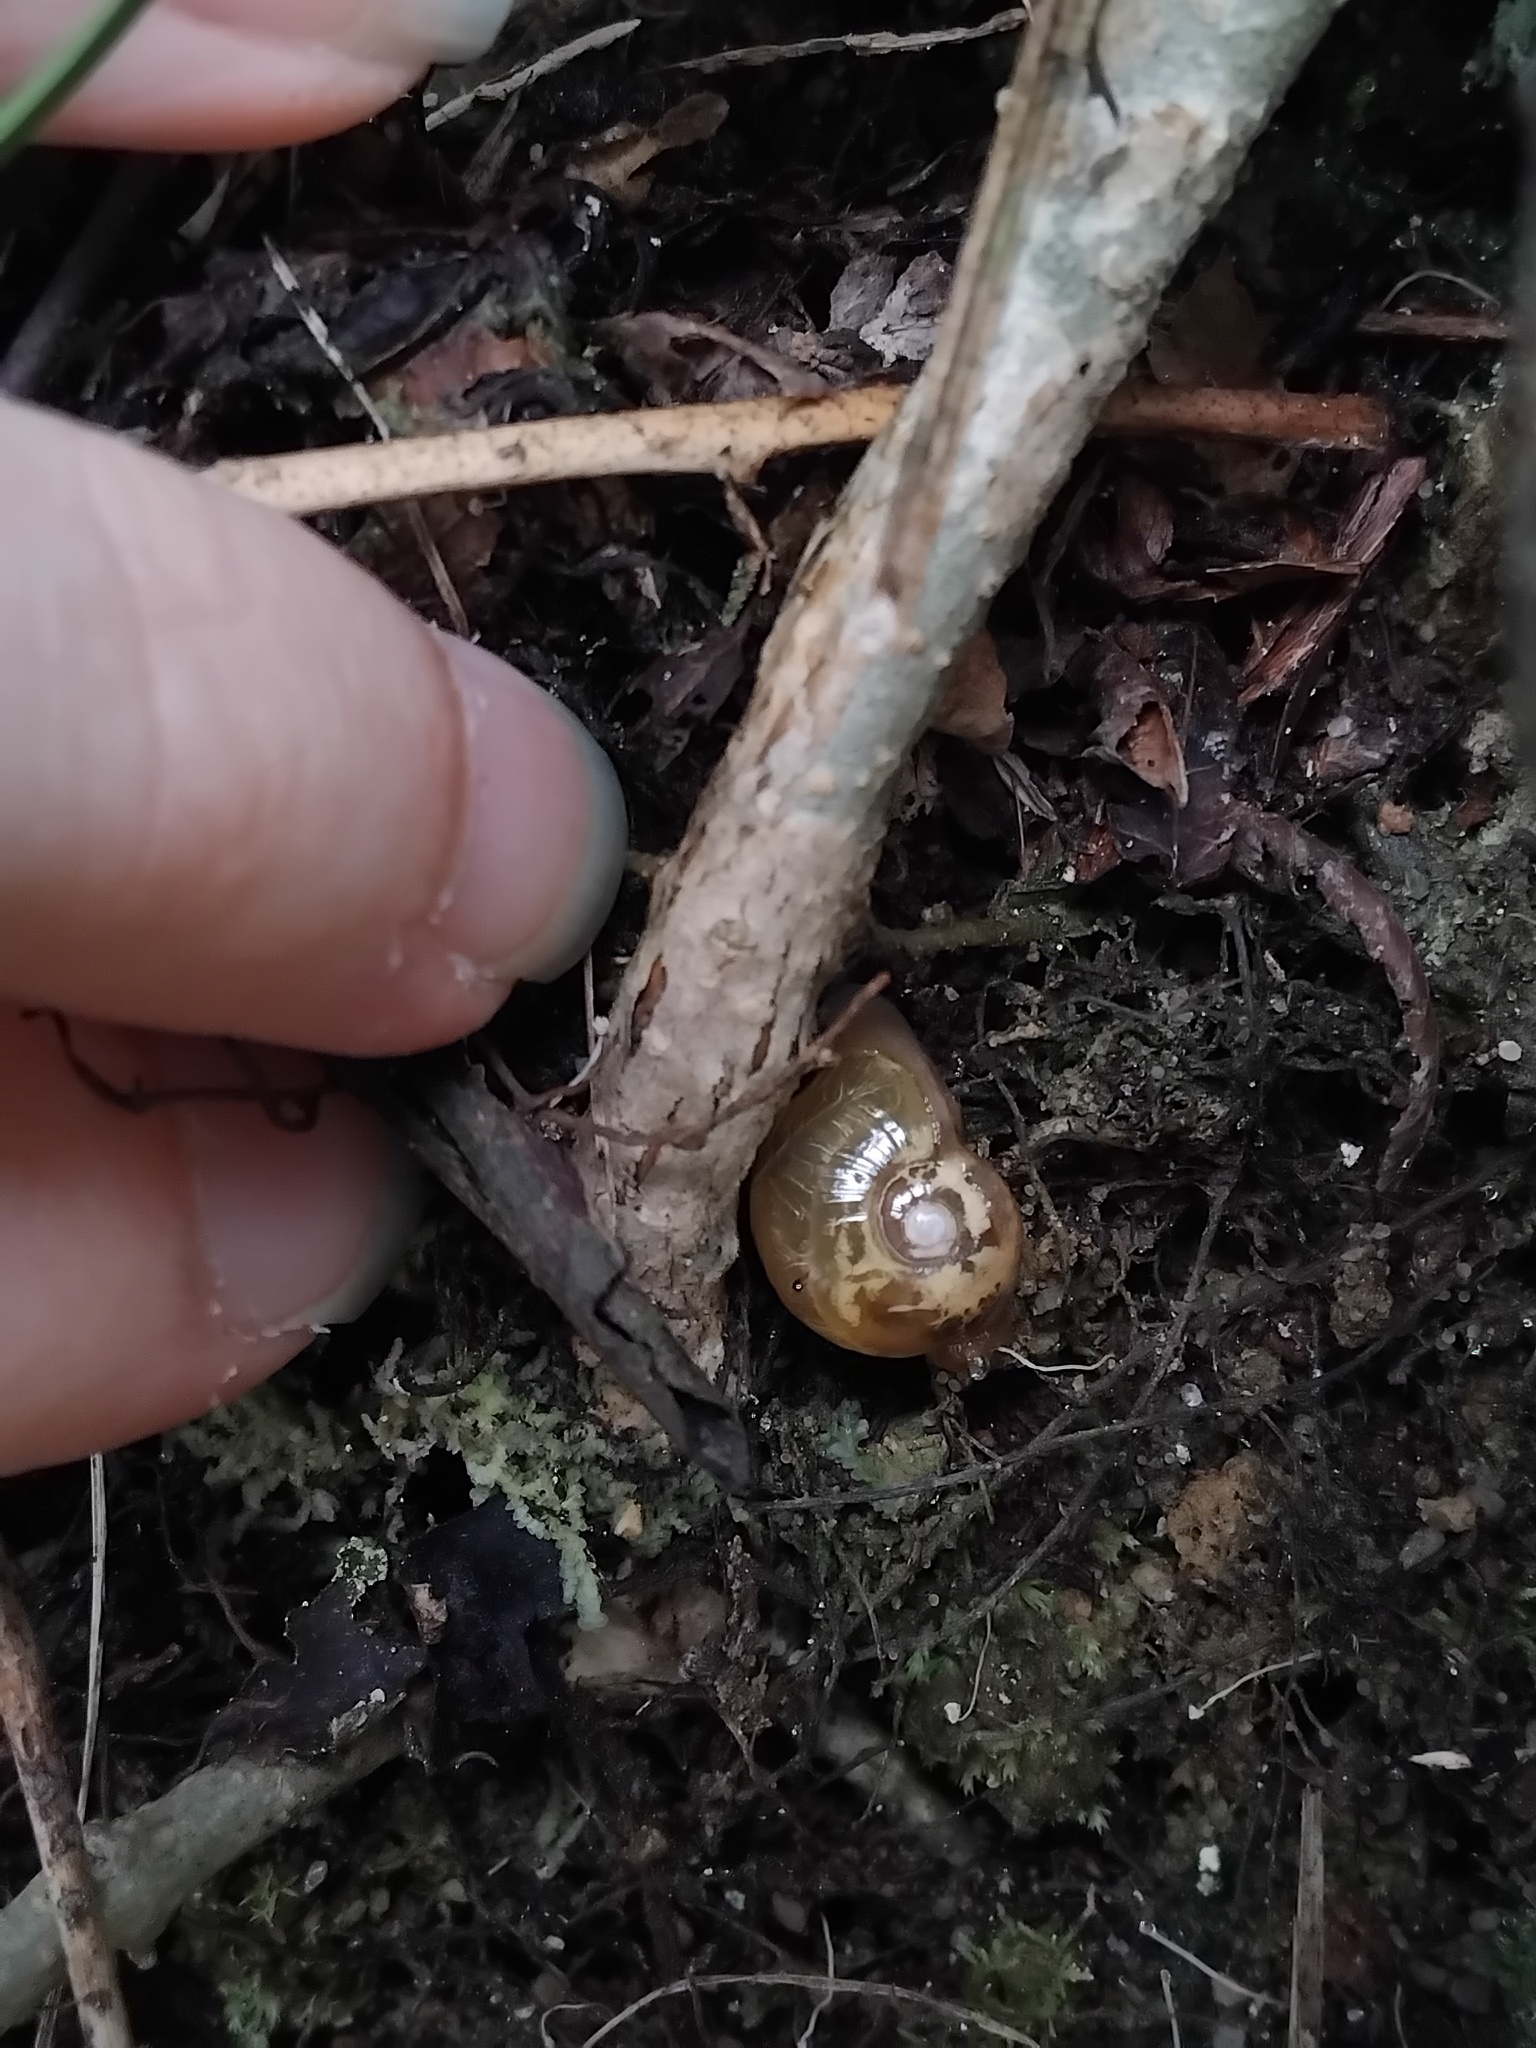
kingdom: Animalia
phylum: Mollusca
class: Gastropoda
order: Stylommatophora
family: Helicarionidae
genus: Mysticarion
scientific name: Mysticarion porrectus
